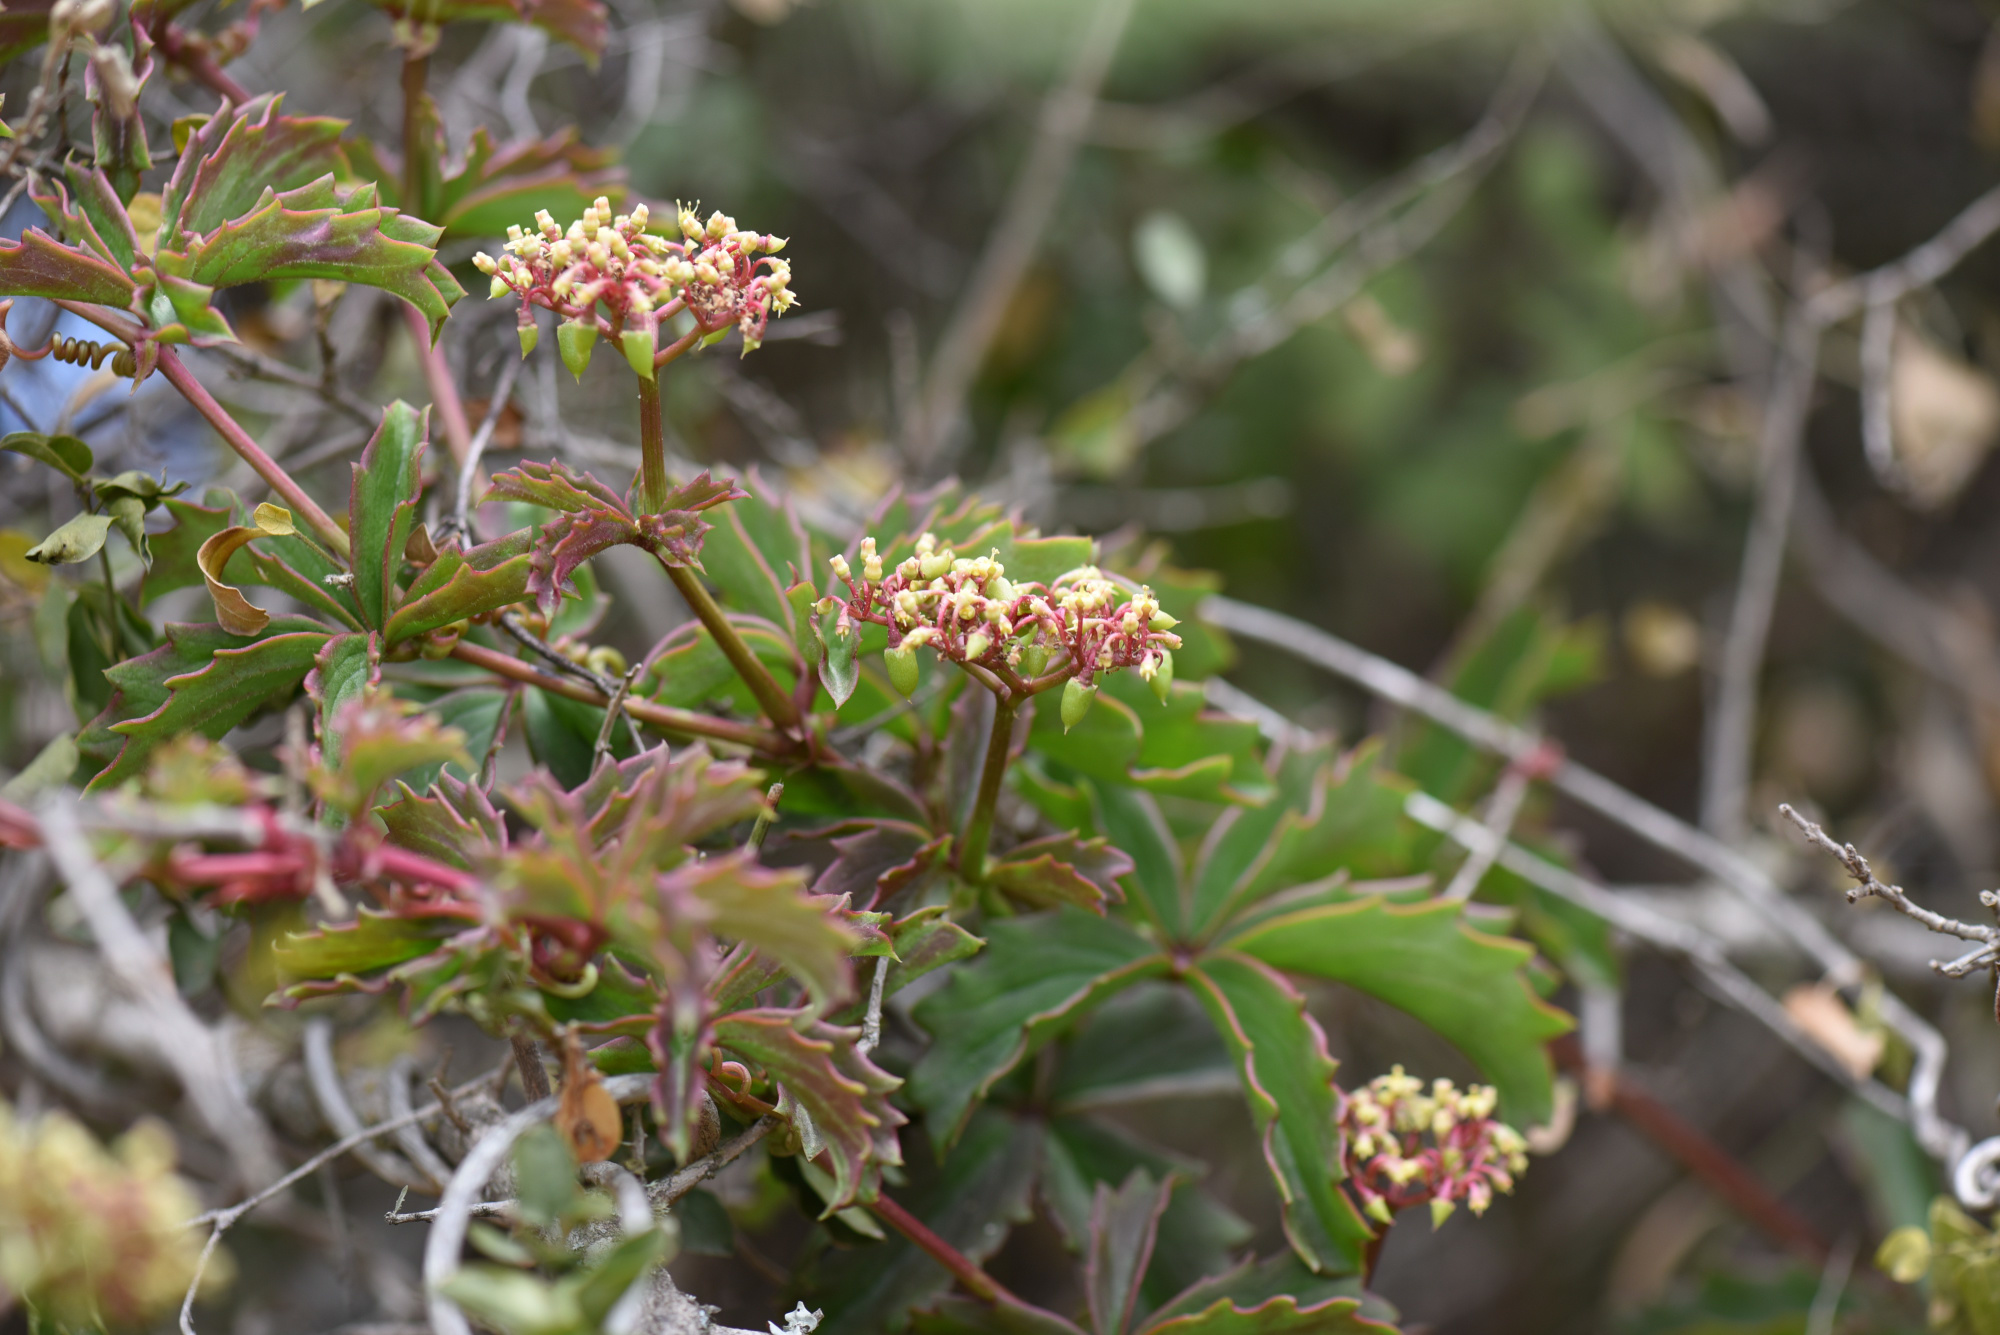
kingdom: Plantae
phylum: Tracheophyta
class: Magnoliopsida
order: Vitales
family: Vitaceae
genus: Cyphostemma
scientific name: Cyphostemma quinatum
